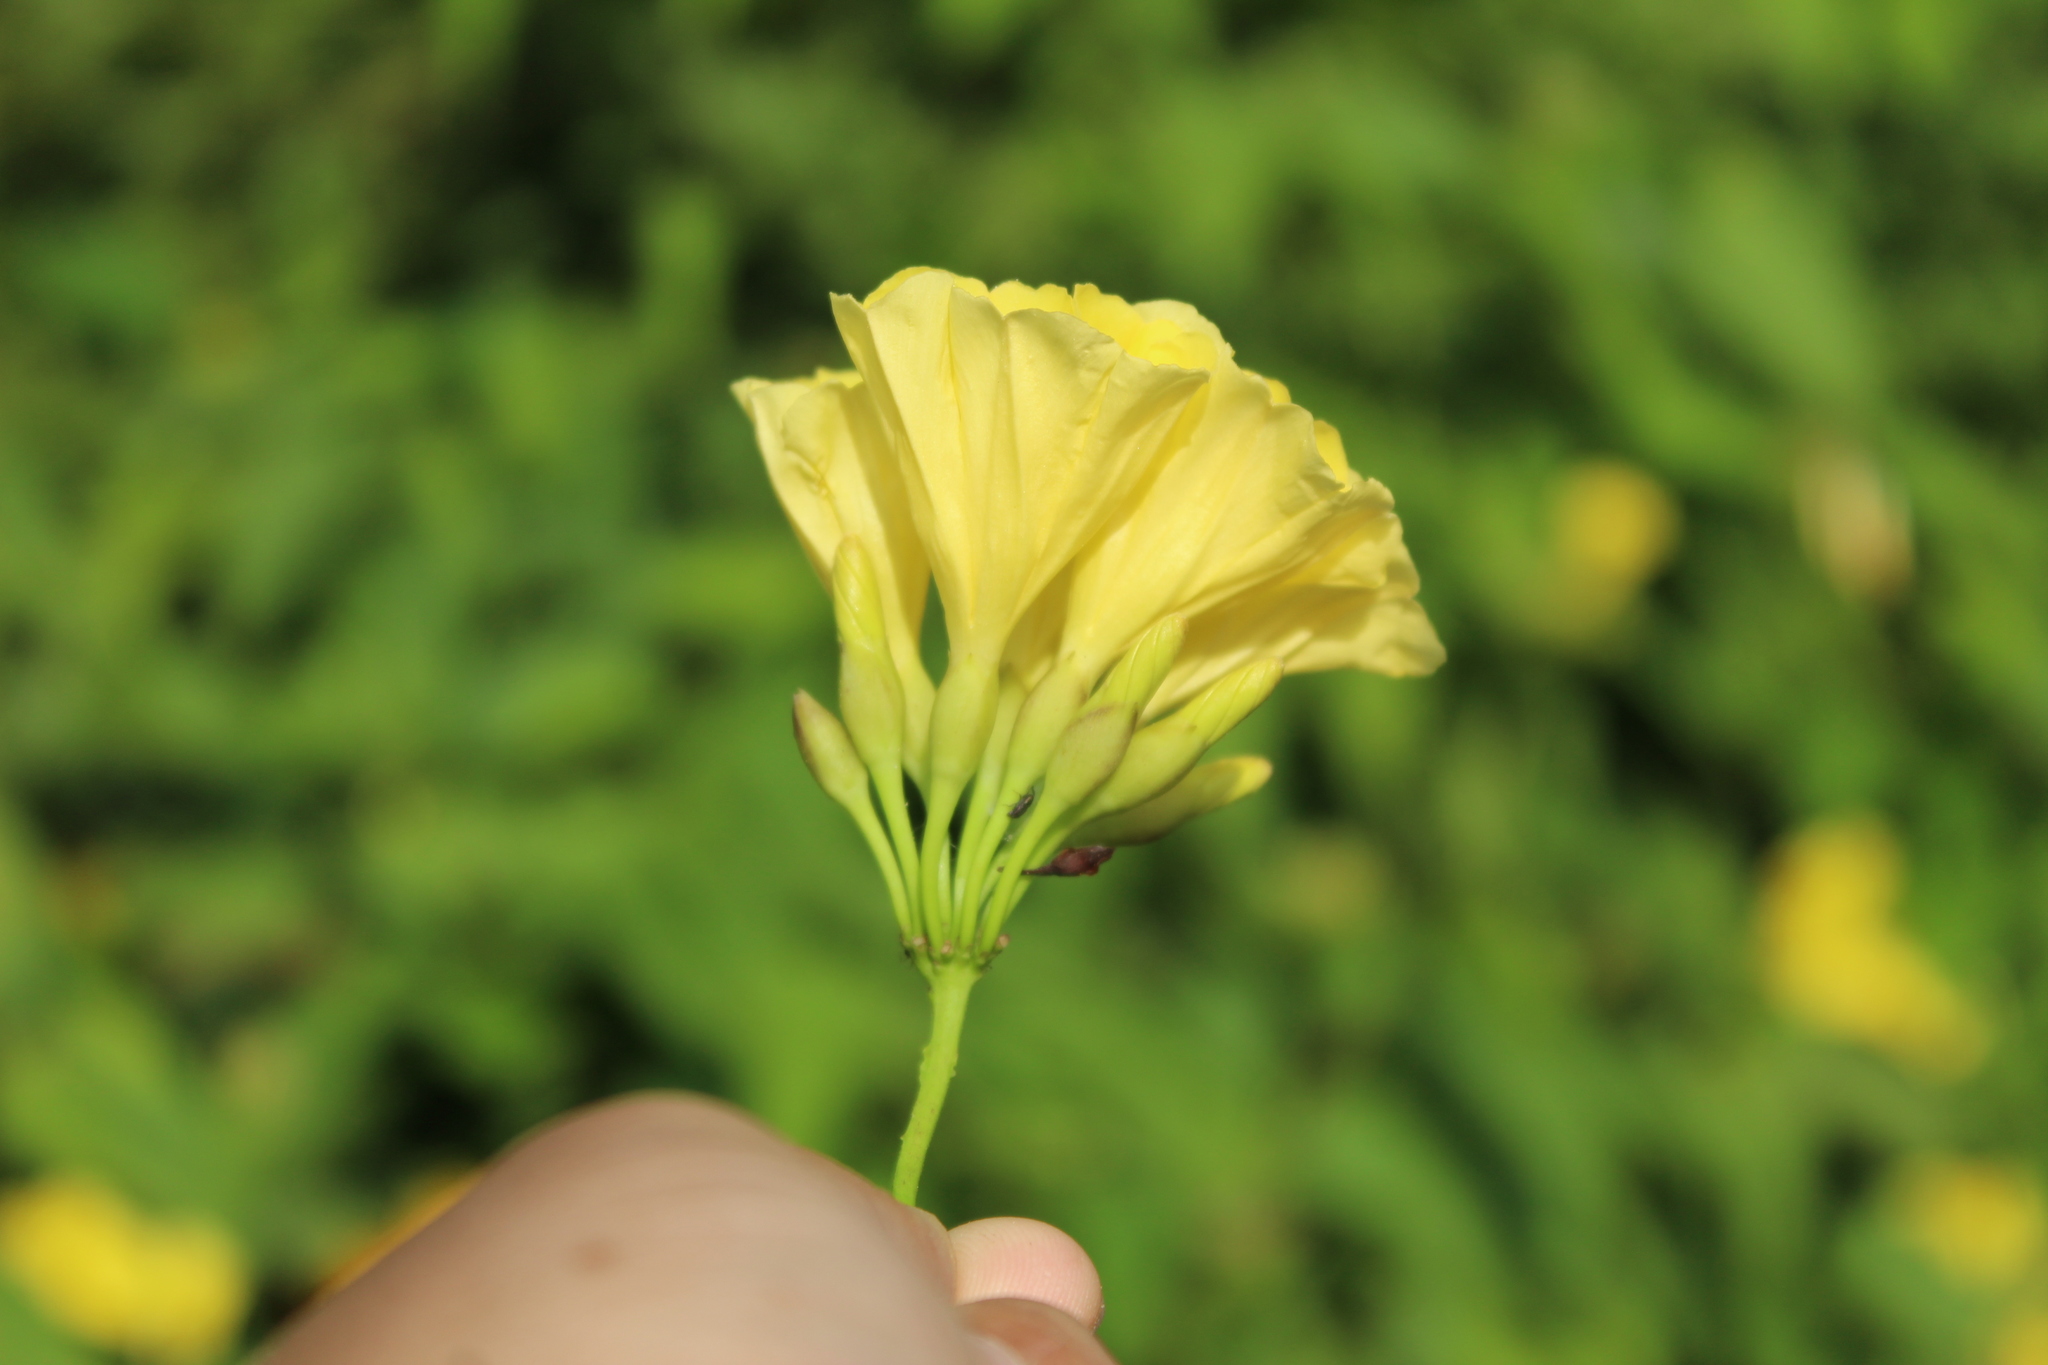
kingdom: Plantae
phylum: Tracheophyta
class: Magnoliopsida
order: Solanales
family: Convolvulaceae
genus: Camonea
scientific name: Camonea umbellata
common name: Hogvine
